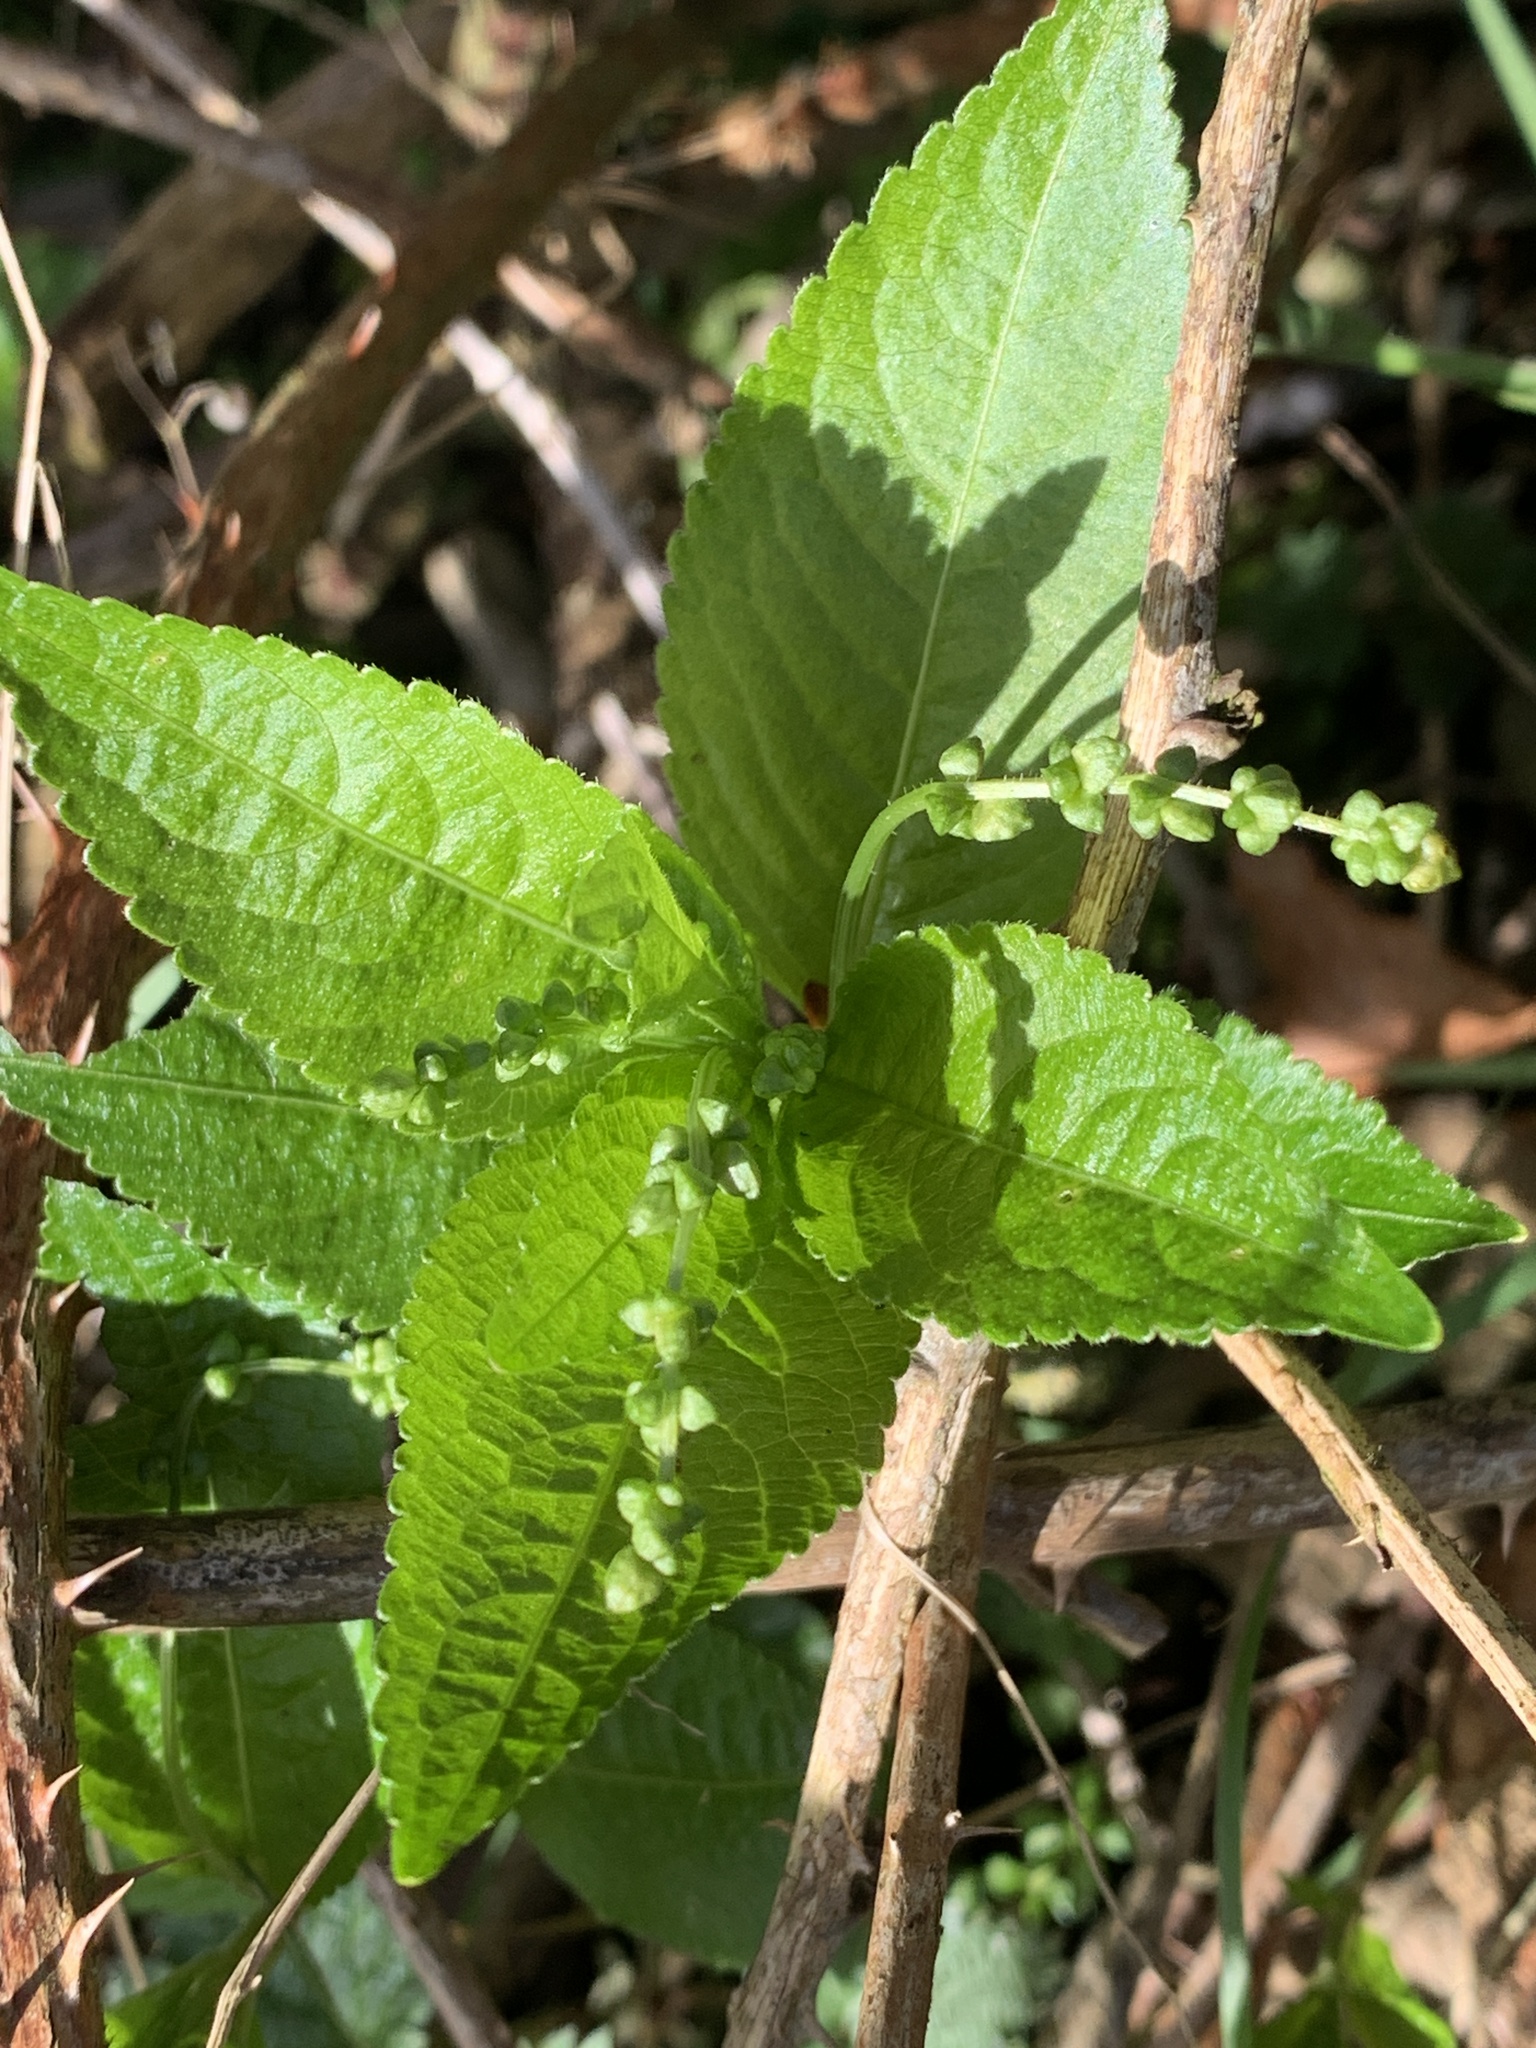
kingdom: Plantae
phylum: Tracheophyta
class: Magnoliopsida
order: Malpighiales
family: Euphorbiaceae
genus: Mercurialis
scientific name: Mercurialis perennis
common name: Dog mercury
